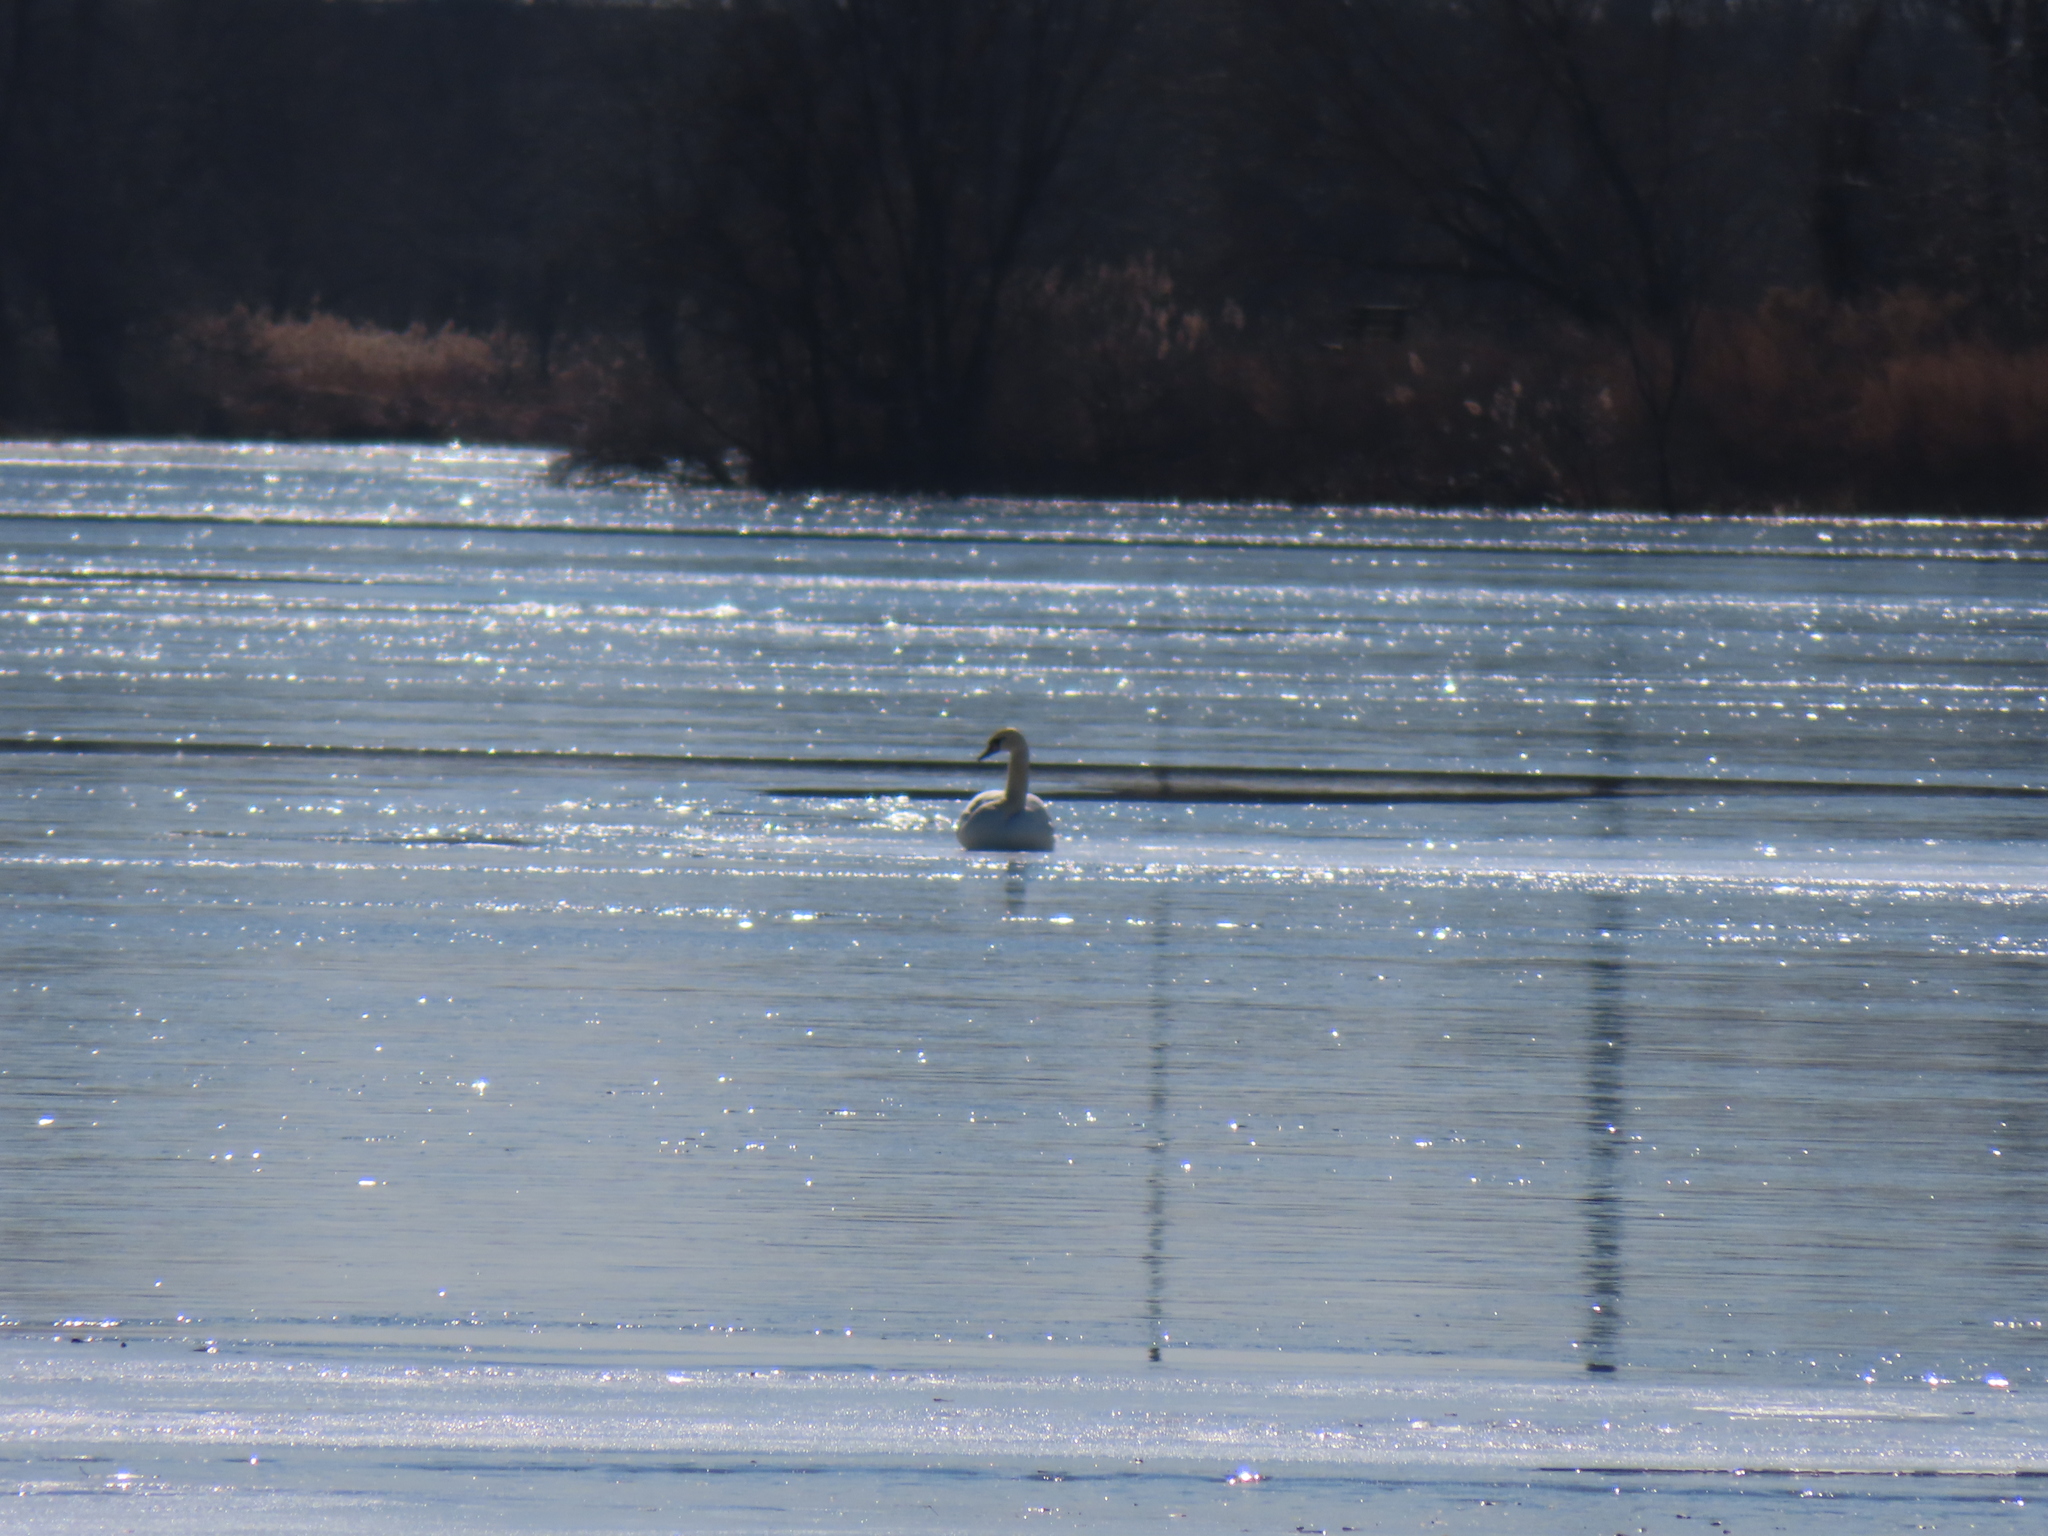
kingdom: Animalia
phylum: Chordata
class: Aves
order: Anseriformes
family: Anatidae
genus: Cygnus
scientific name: Cygnus olor
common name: Mute swan
